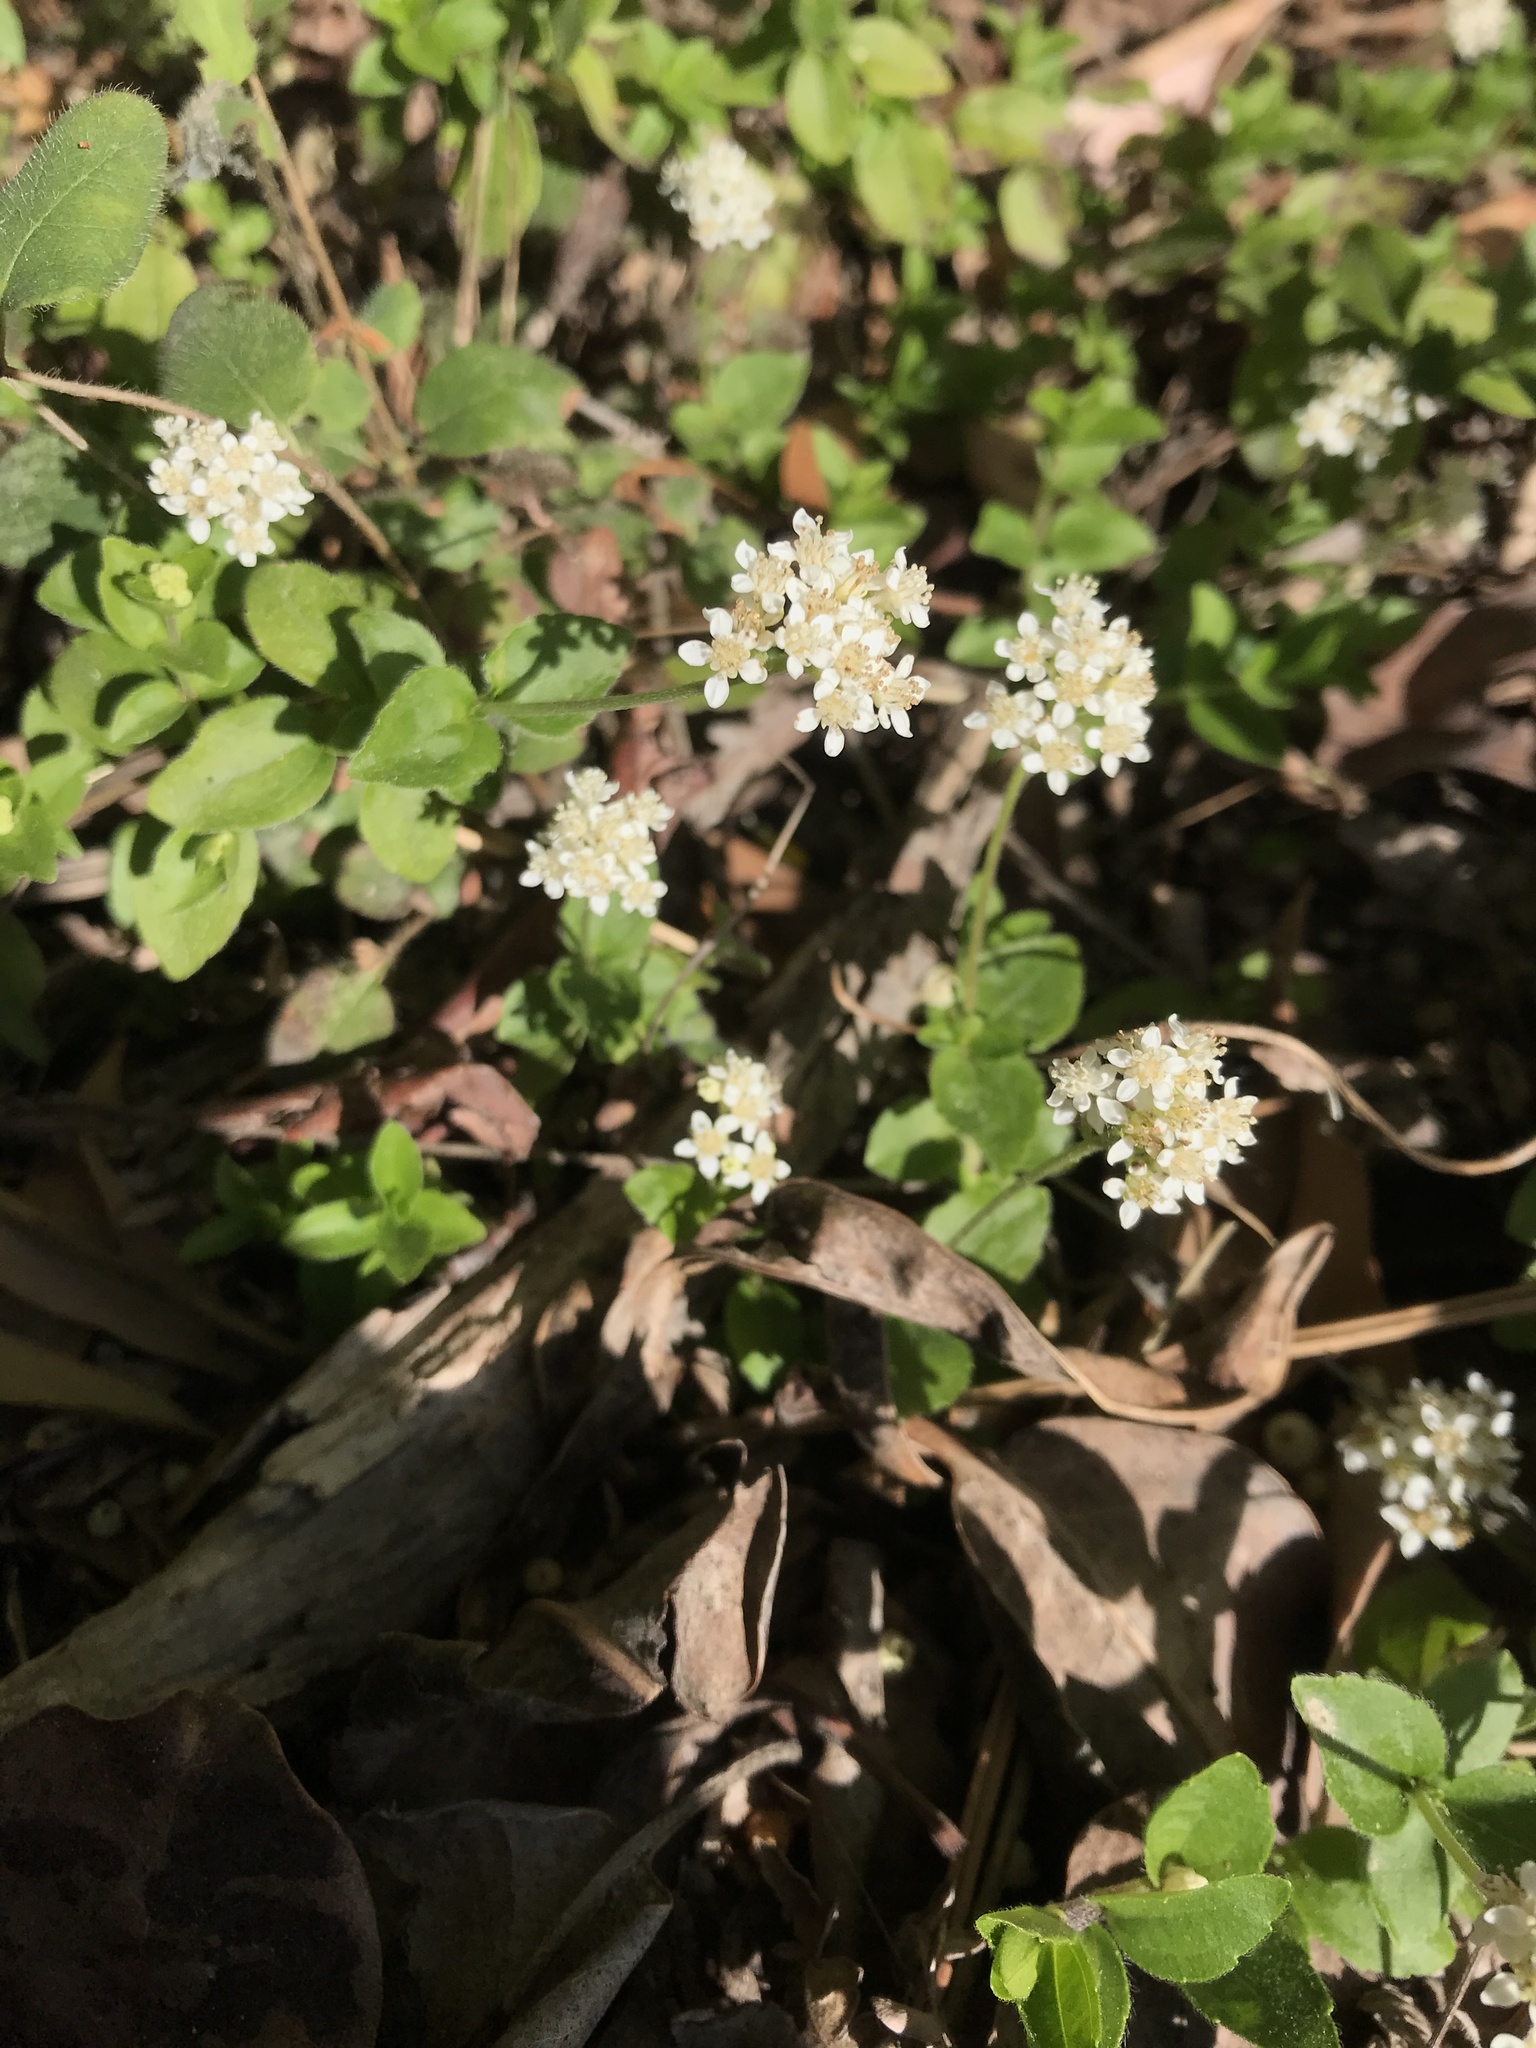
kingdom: Plantae
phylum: Tracheophyta
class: Magnoliopsida
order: Cornales
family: Hydrangeaceae
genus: Whipplea
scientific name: Whipplea modesta
